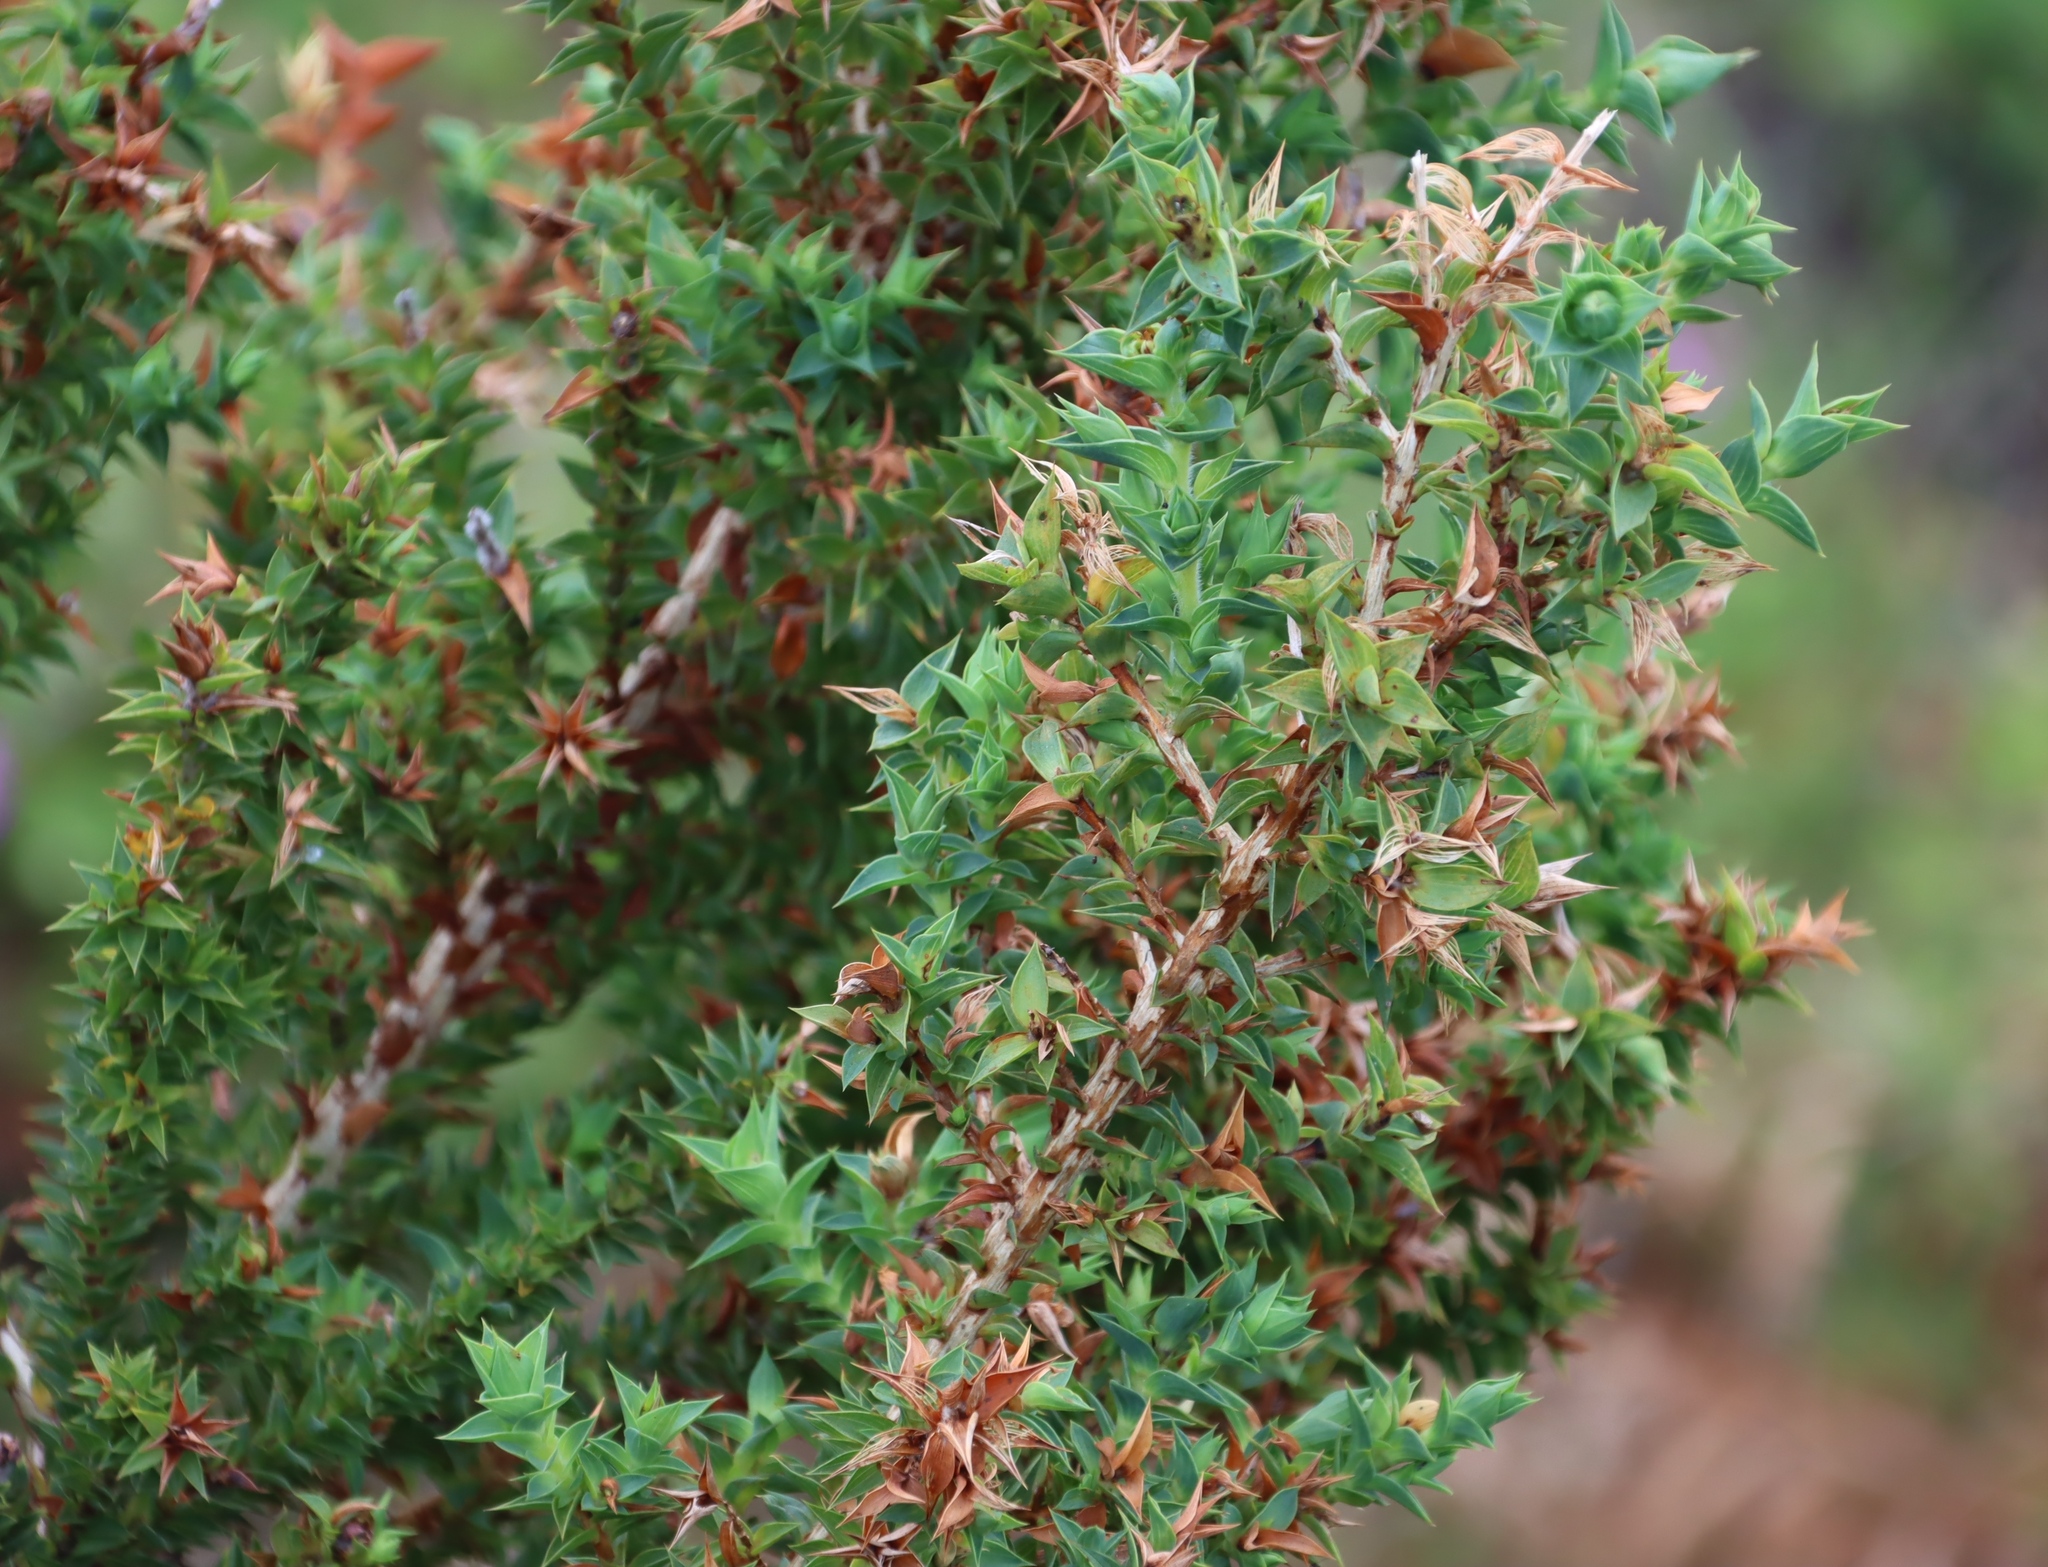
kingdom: Plantae
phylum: Tracheophyta
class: Magnoliopsida
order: Fabales
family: Fabaceae
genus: Aspalathus
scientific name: Aspalathus cordata
